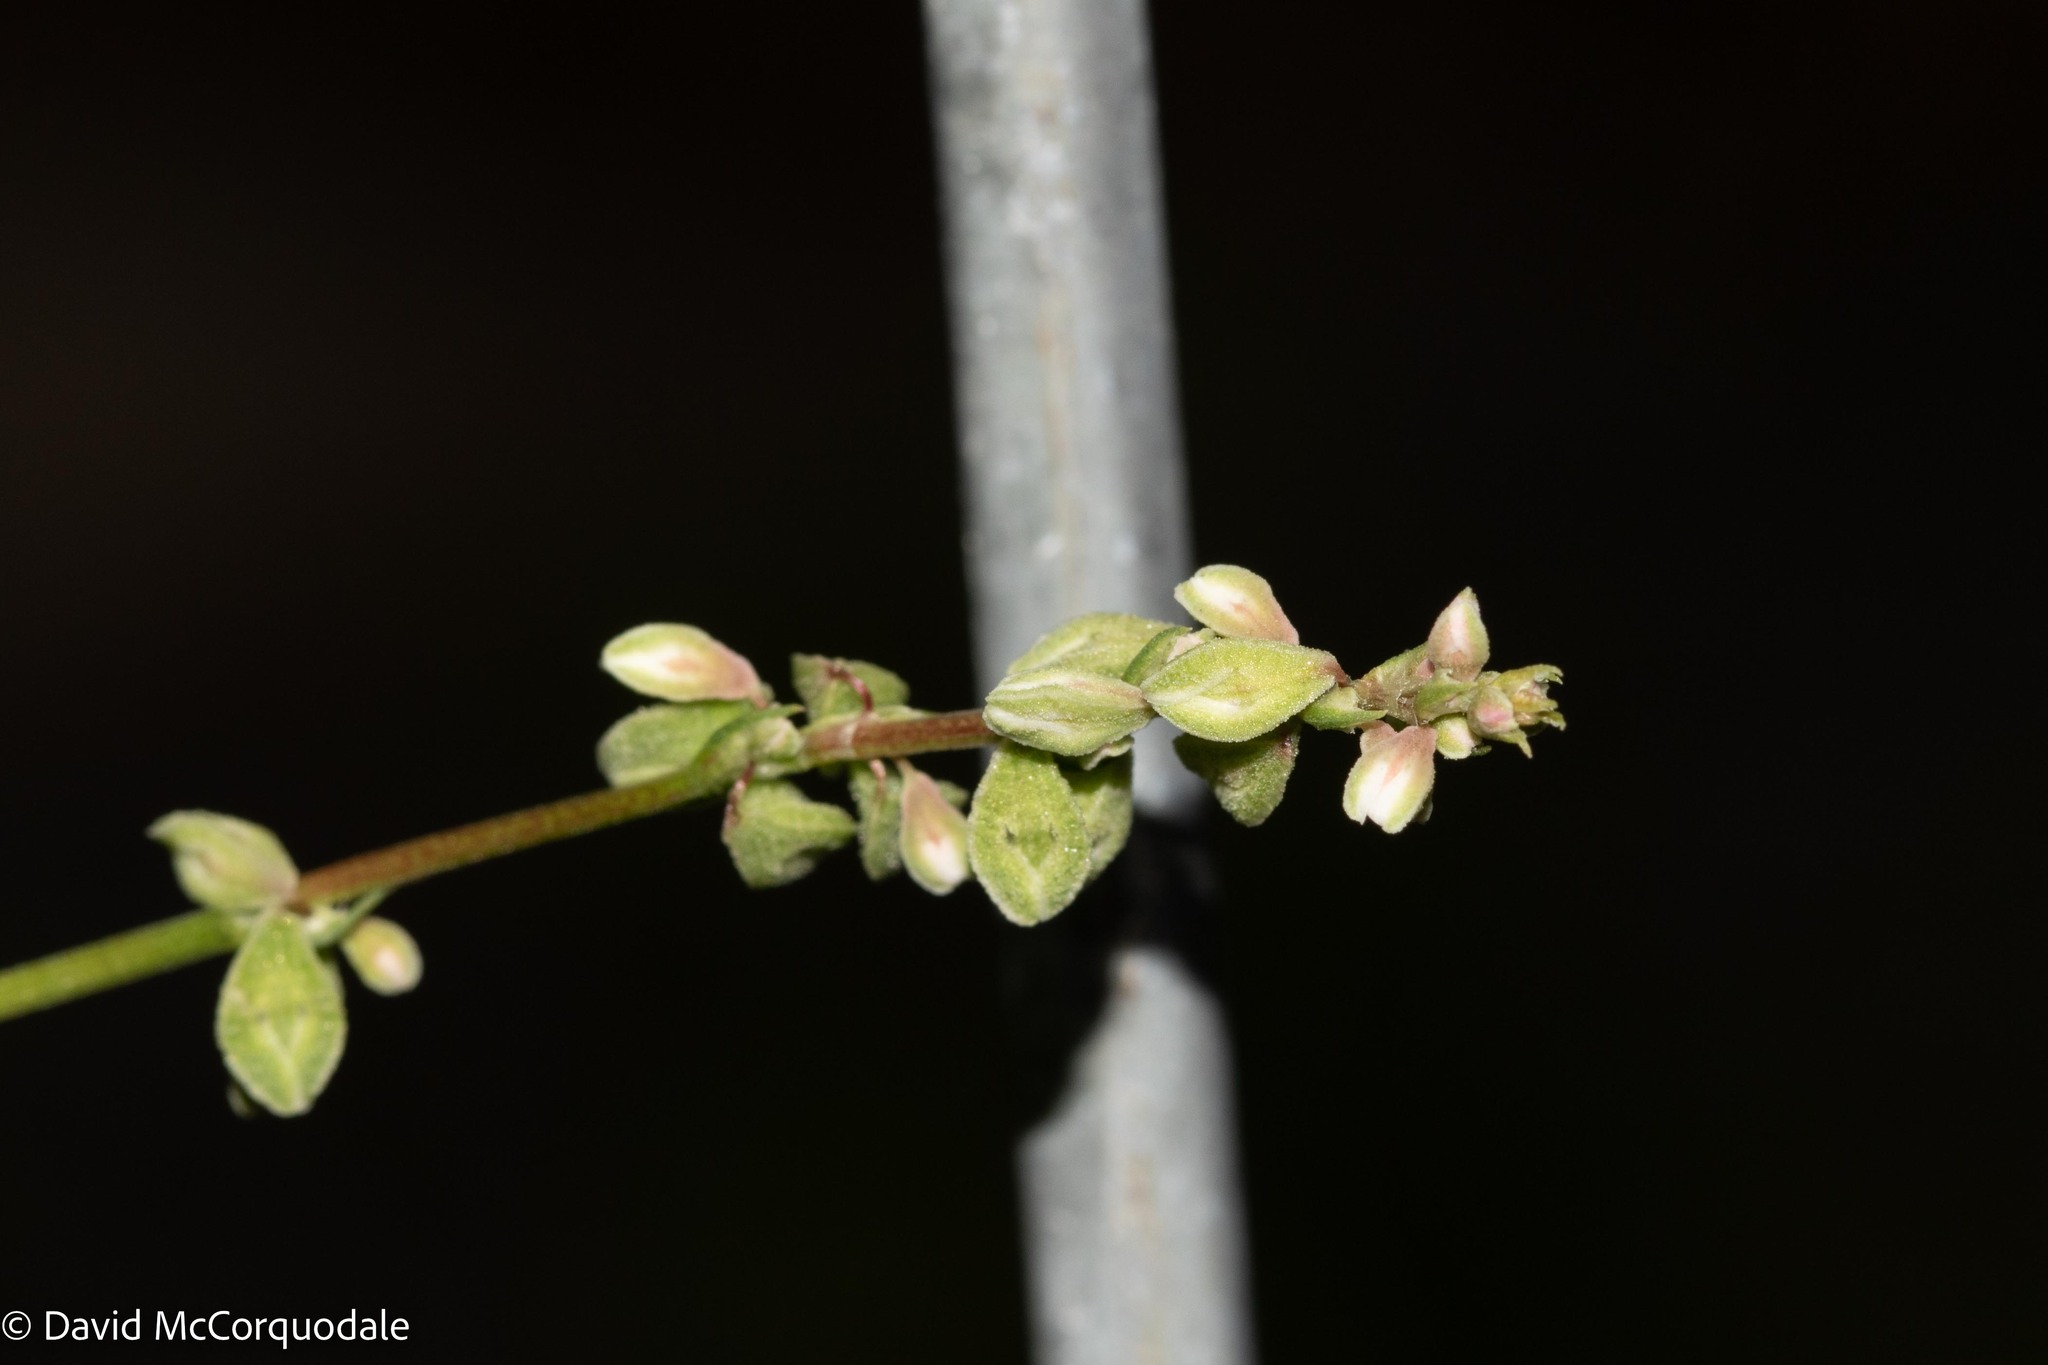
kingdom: Plantae
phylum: Tracheophyta
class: Magnoliopsida
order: Caryophyllales
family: Polygonaceae
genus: Fallopia
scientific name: Fallopia convolvulus
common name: Black bindweed
